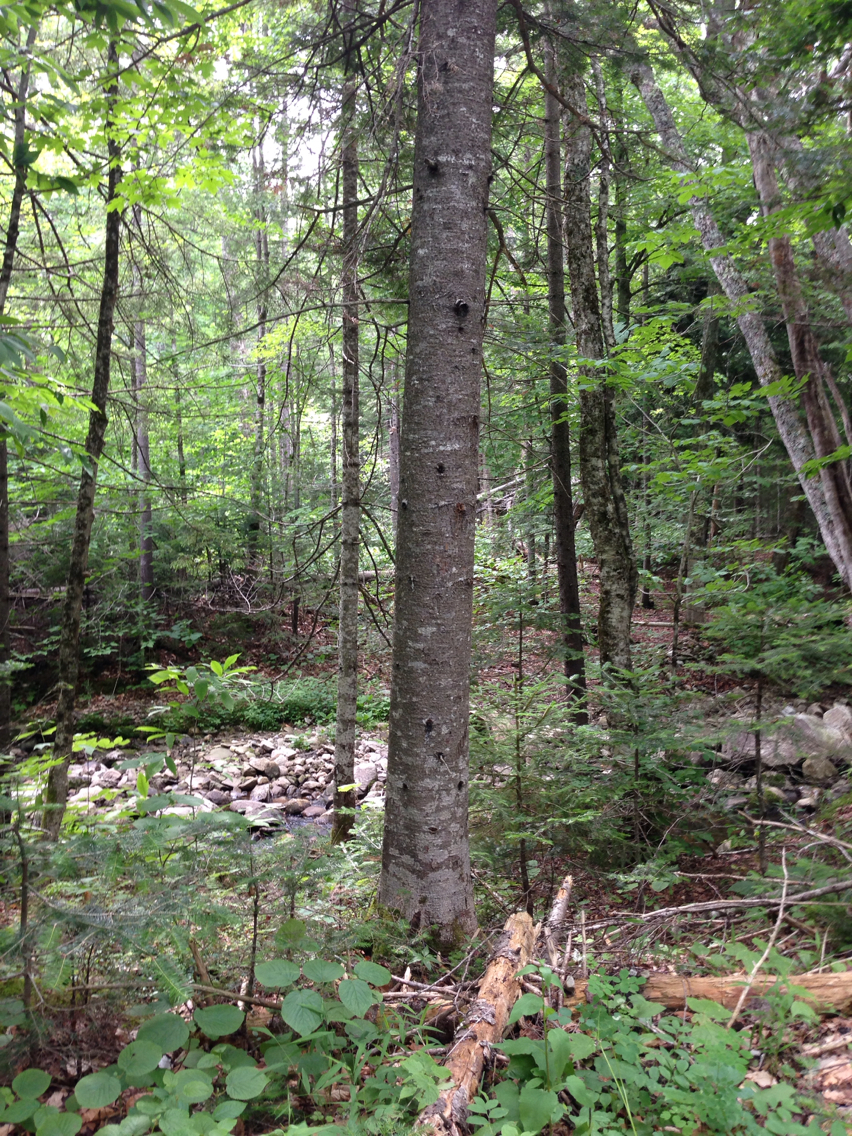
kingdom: Plantae
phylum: Tracheophyta
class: Pinopsida
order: Pinales
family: Pinaceae
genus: Abies
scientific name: Abies balsamea
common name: Balsam fir
